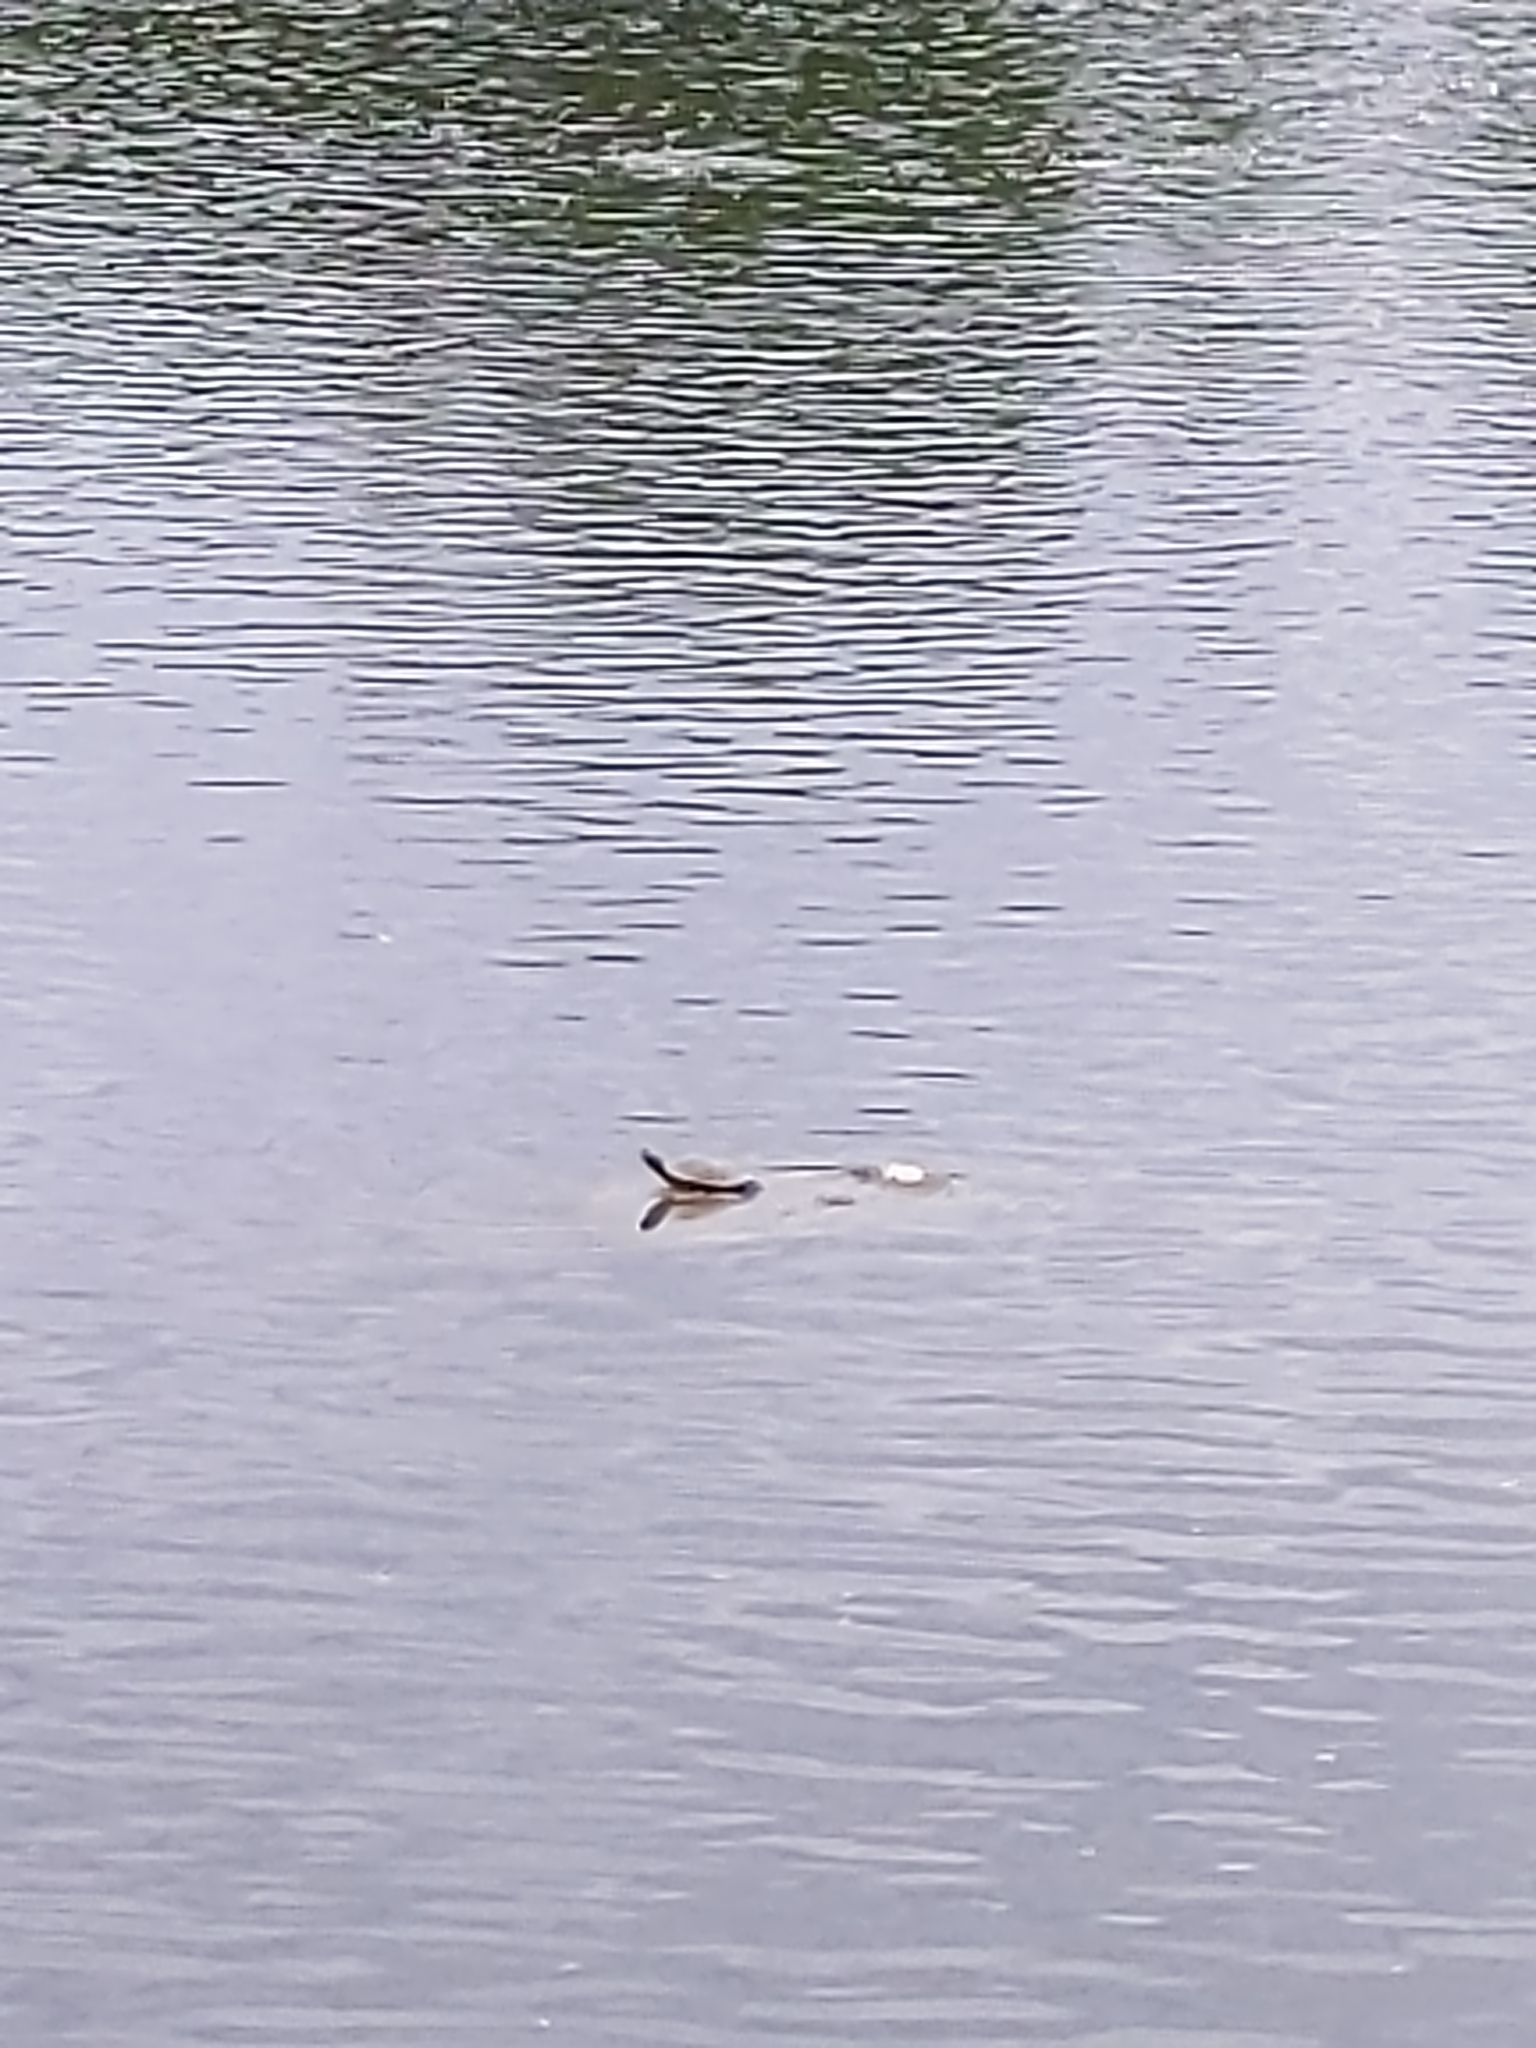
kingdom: Animalia
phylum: Chordata
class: Testudines
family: Emydidae
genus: Chrysemys
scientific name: Chrysemys picta
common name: Painted turtle
